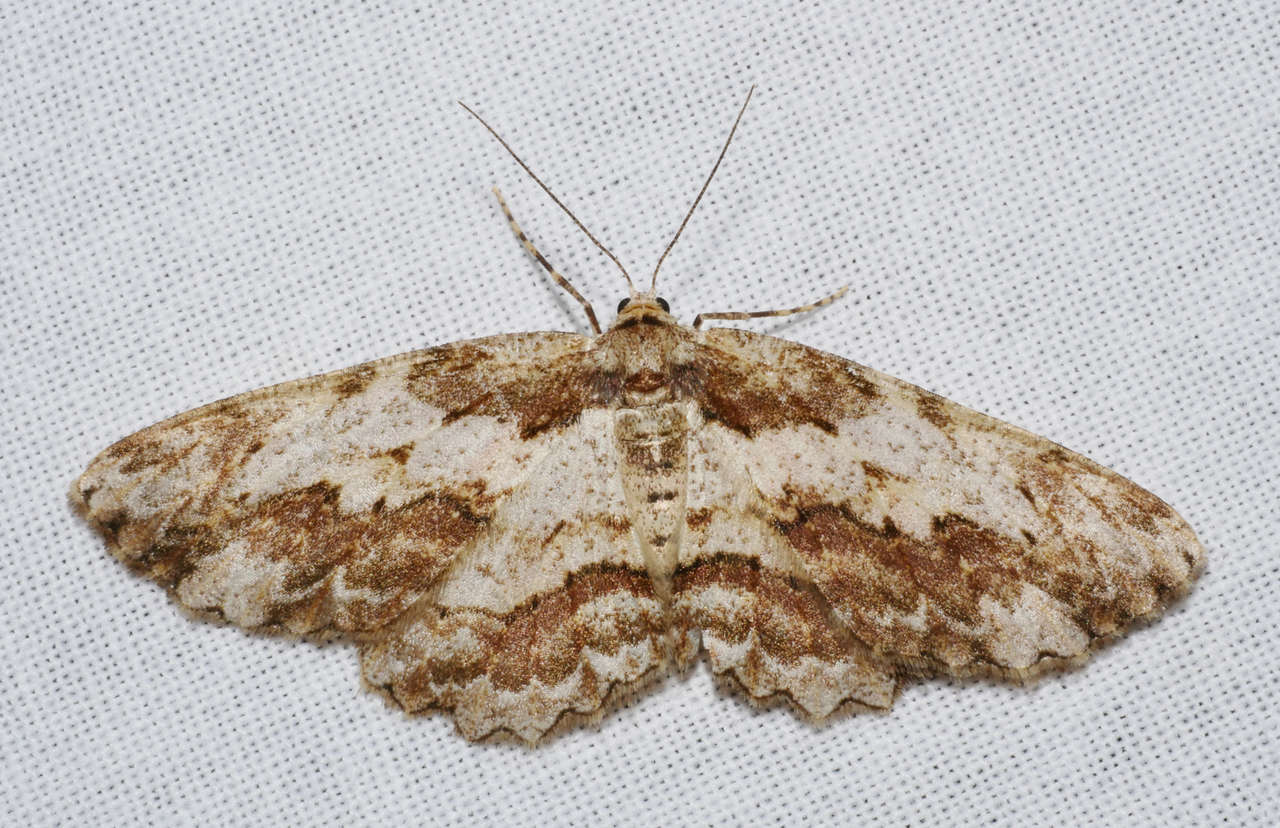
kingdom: Animalia
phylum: Arthropoda
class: Insecta
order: Lepidoptera
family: Geometridae
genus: Ectropis
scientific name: Ectropis bispinaria
